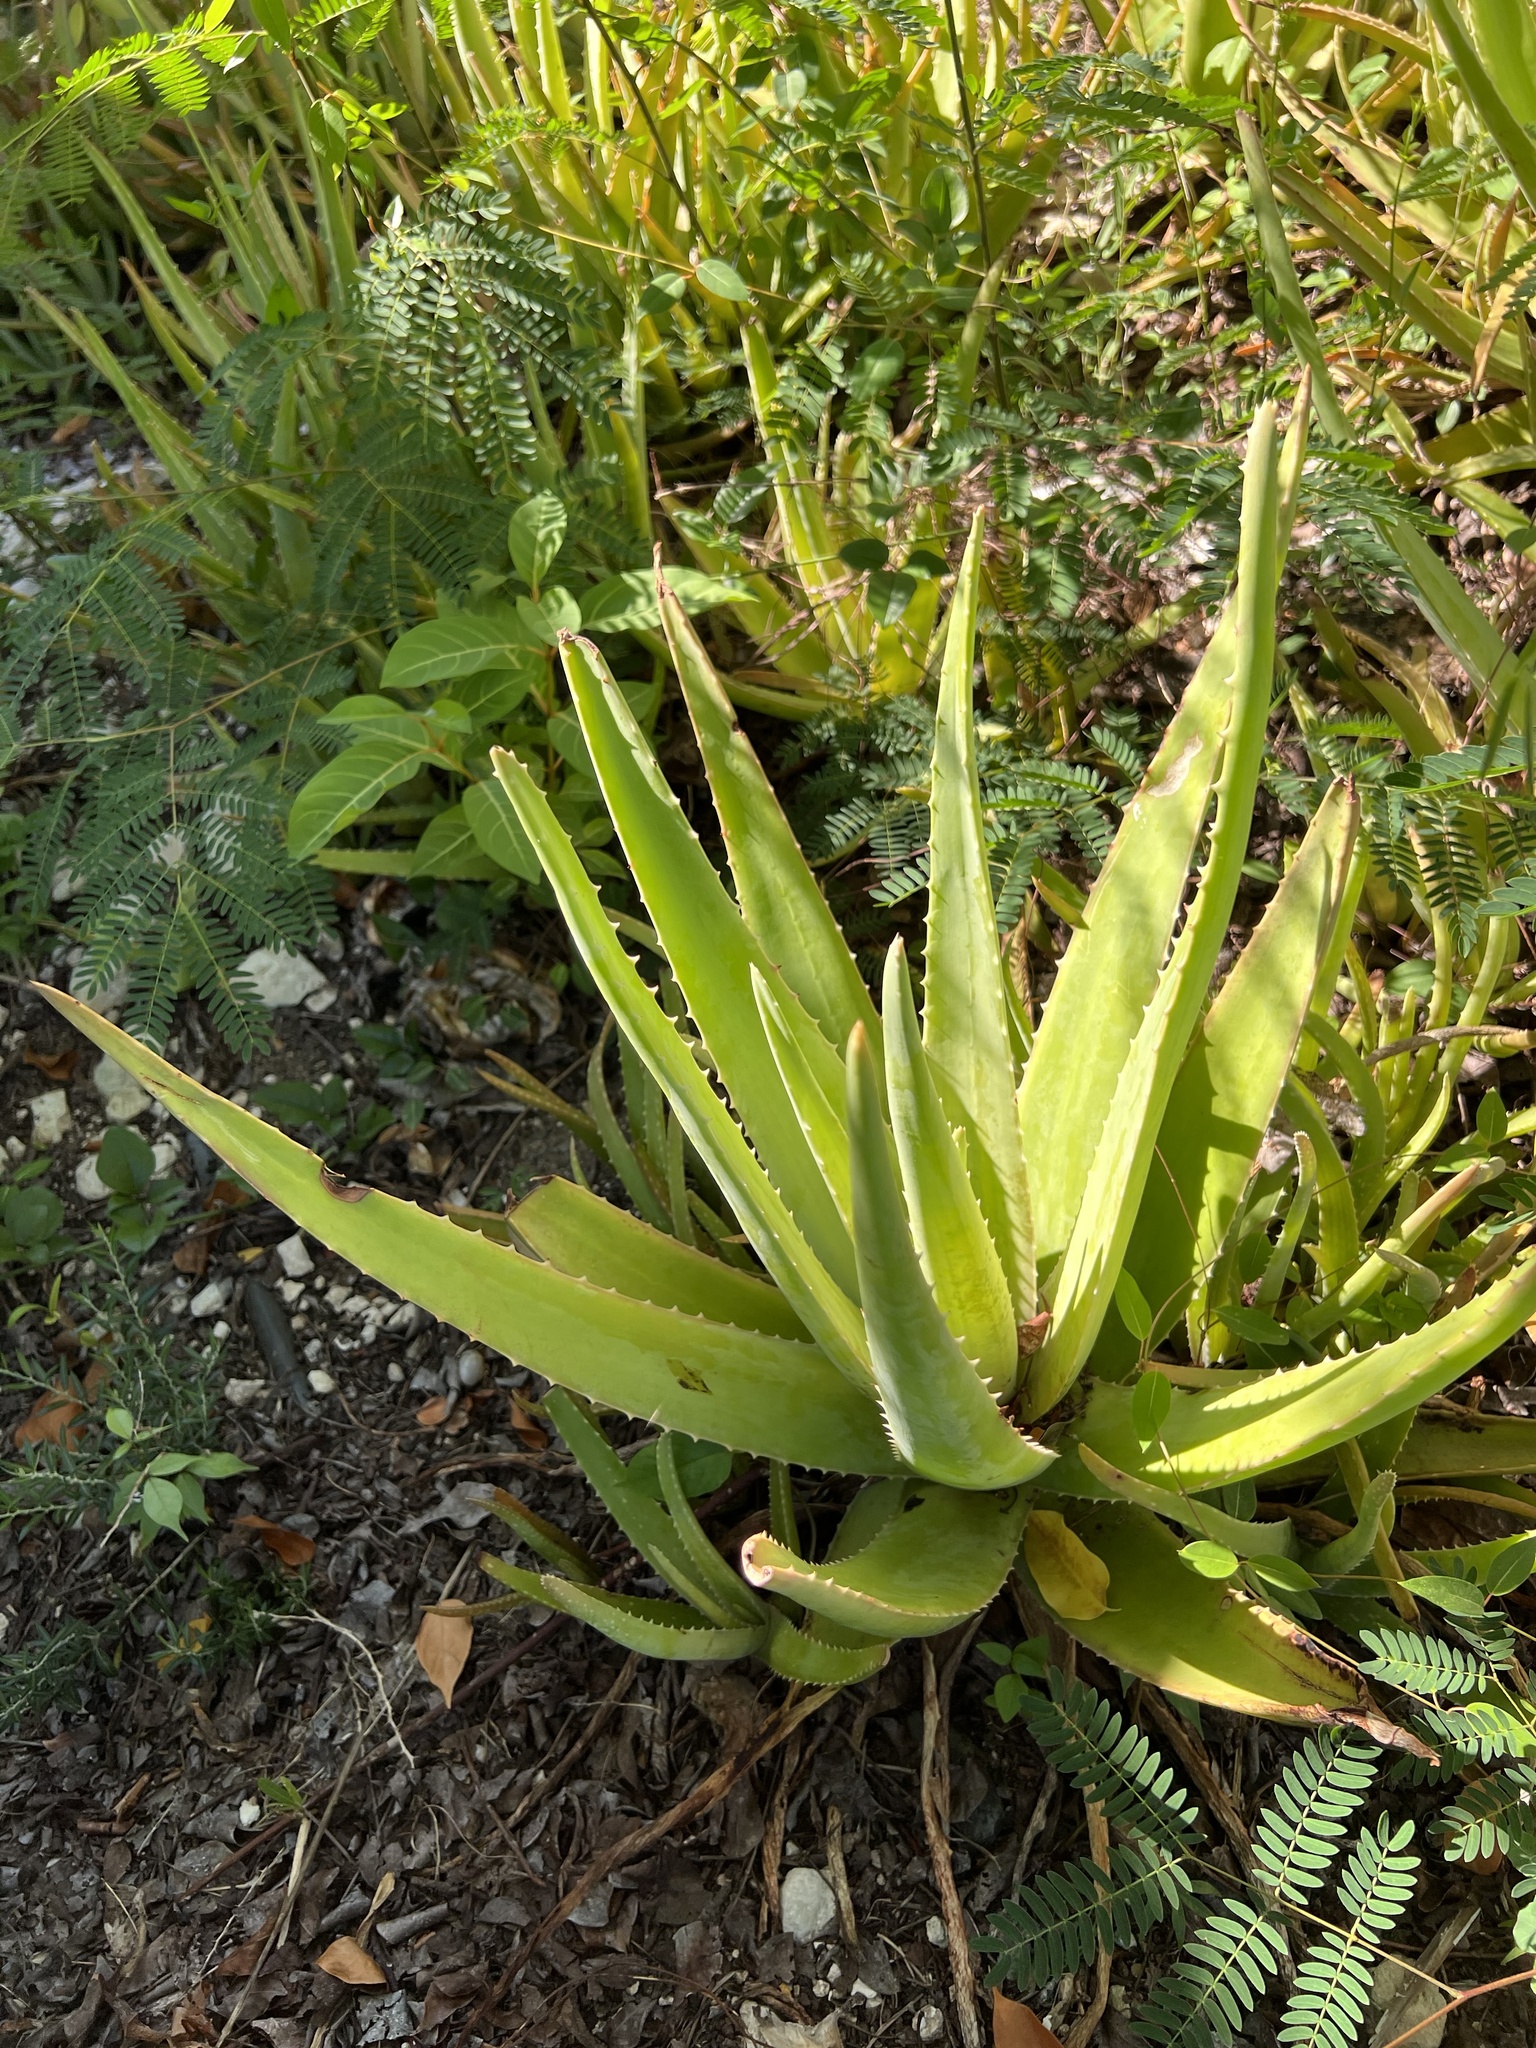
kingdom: Plantae
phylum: Tracheophyta
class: Liliopsida
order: Asparagales
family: Asphodelaceae
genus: Aloe
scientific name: Aloe vera
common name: Barbados aloe
